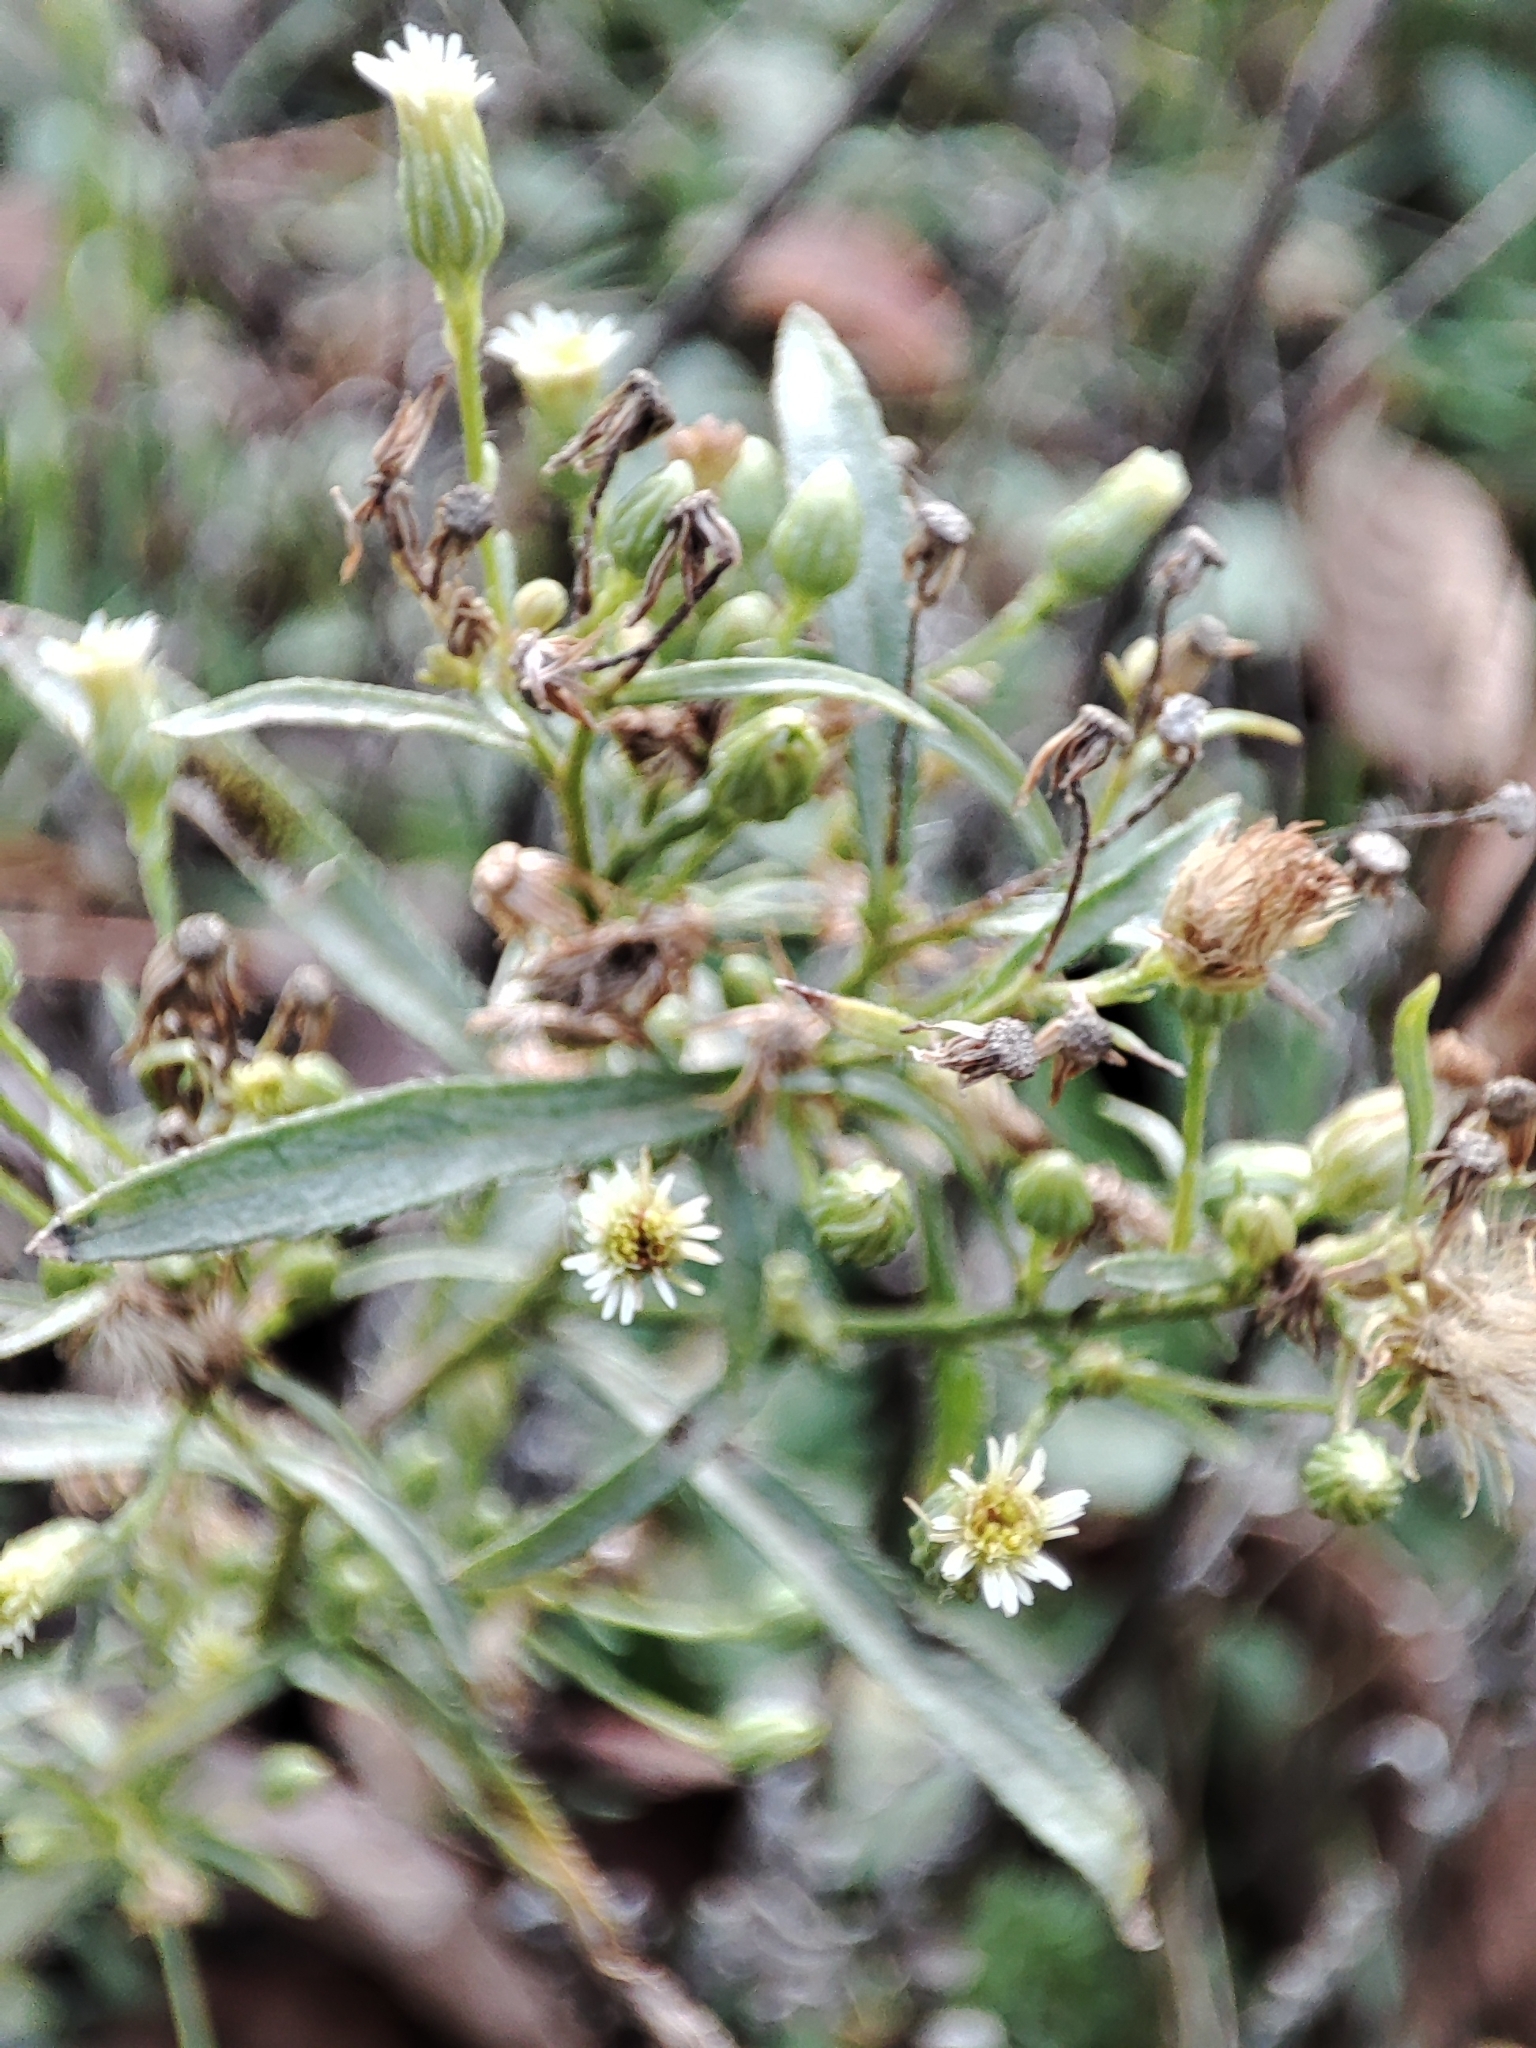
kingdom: Plantae
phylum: Tracheophyta
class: Magnoliopsida
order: Asterales
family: Asteraceae
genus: Erigeron
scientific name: Erigeron canadensis
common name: Canadian fleabane
